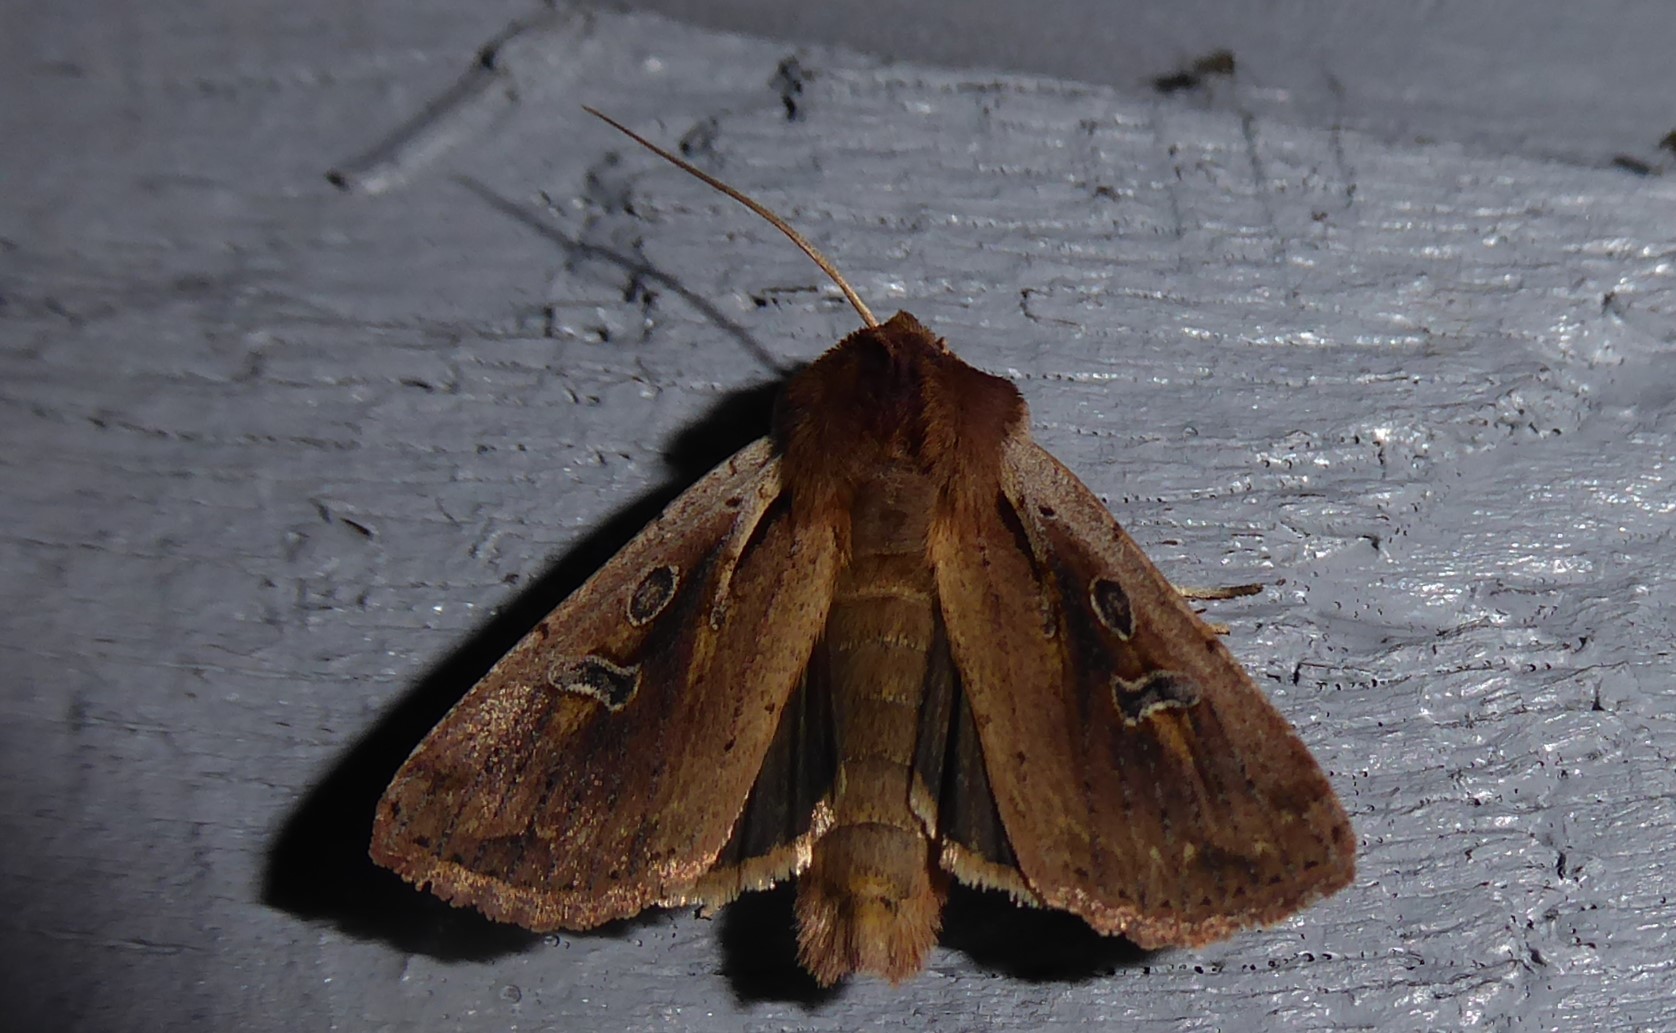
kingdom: Animalia
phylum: Arthropoda
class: Insecta
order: Lepidoptera
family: Noctuidae
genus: Ichneutica
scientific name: Ichneutica atristriga
